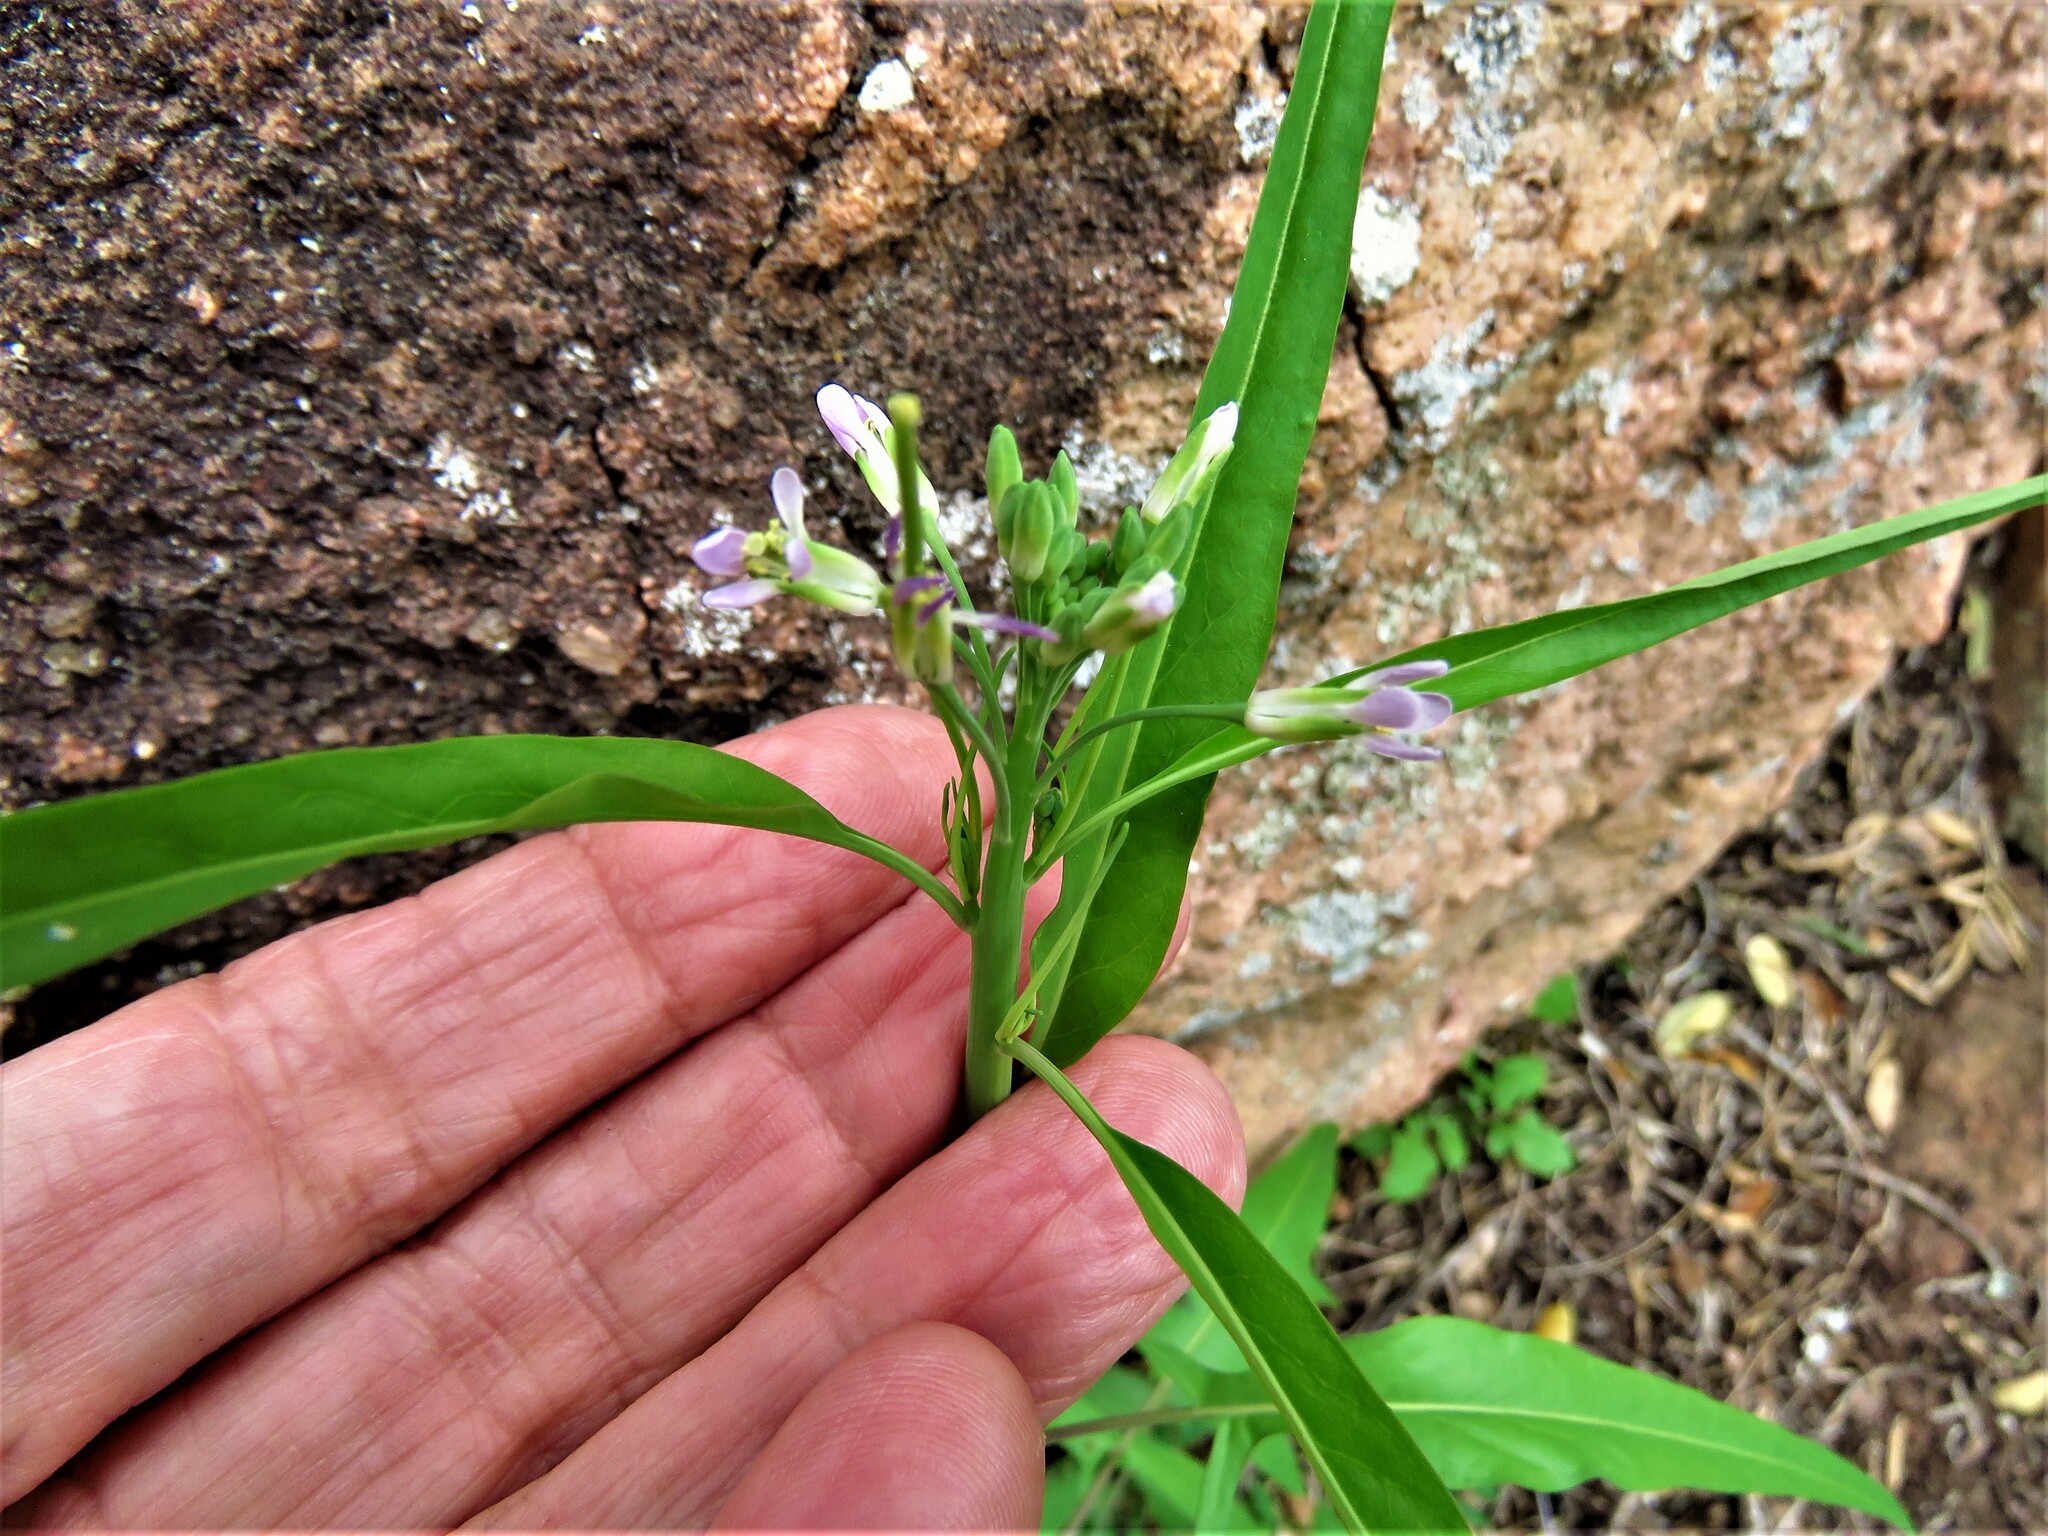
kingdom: Plantae
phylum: Tracheophyta
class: Magnoliopsida
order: Brassicales
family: Brassicaceae
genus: Streptanthus
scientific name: Streptanthus petiolaris
